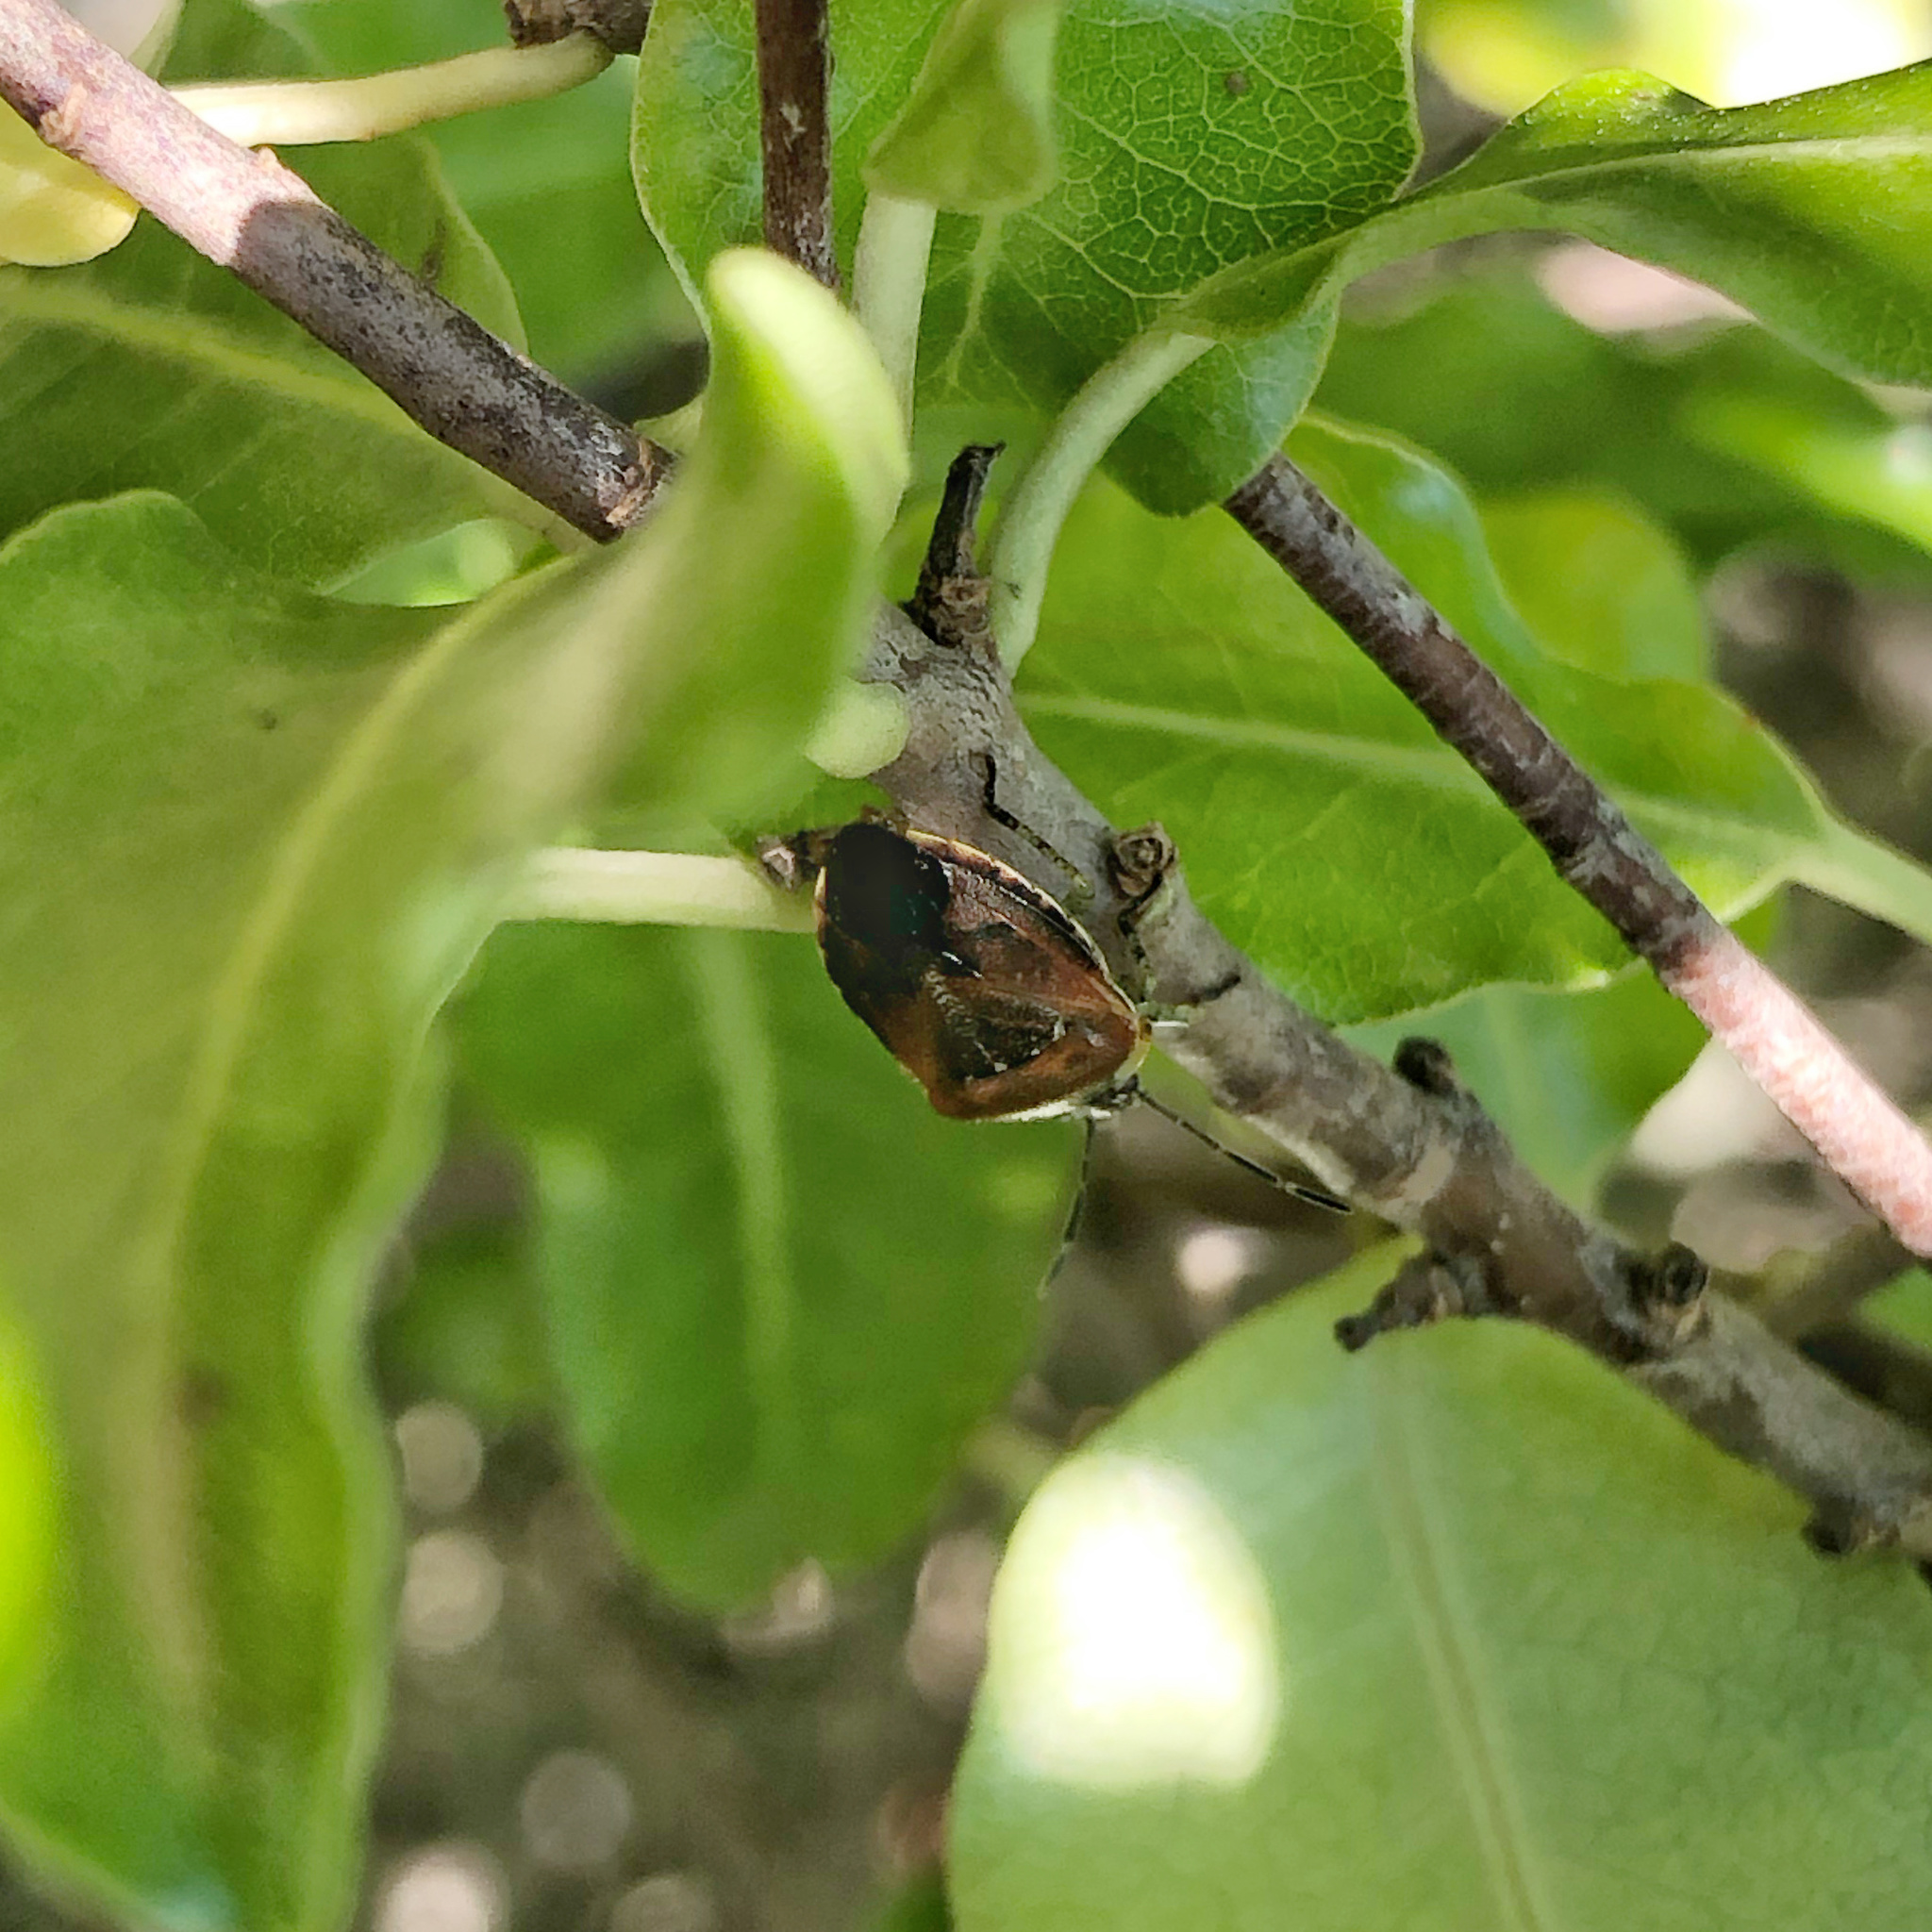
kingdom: Animalia
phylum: Arthropoda
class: Insecta
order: Hemiptera
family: Pentatomidae
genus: Monteithiella
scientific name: Monteithiella
